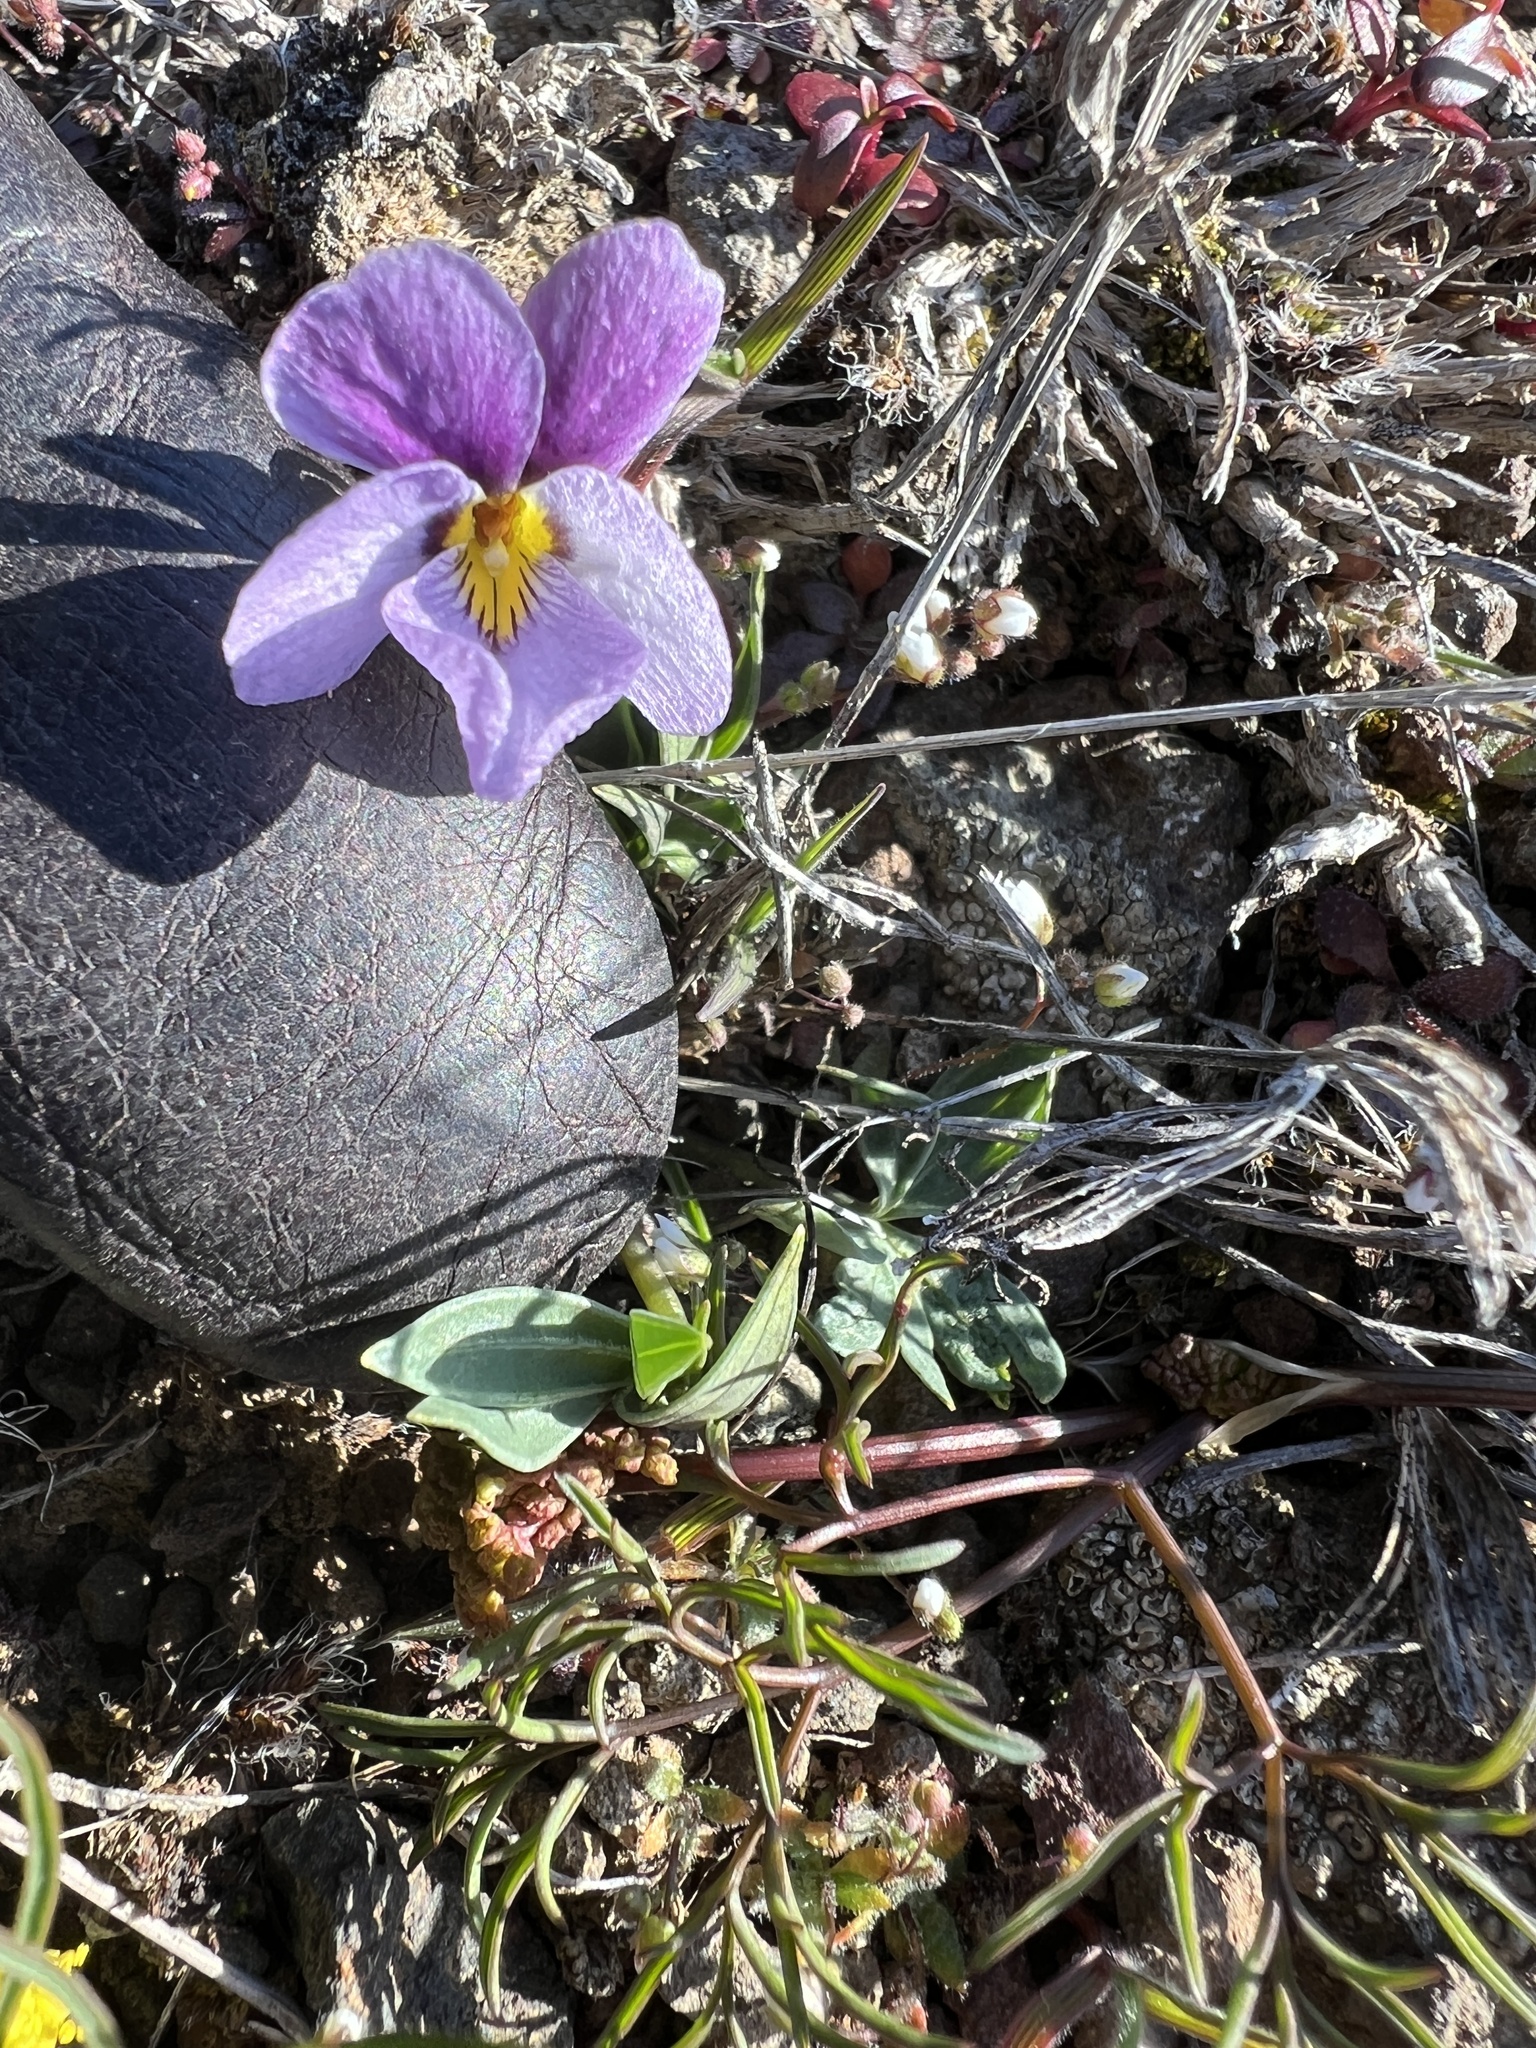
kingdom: Plantae
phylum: Tracheophyta
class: Magnoliopsida
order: Malpighiales
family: Violaceae
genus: Viola
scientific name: Viola trinervata
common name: Sagebrush violet
